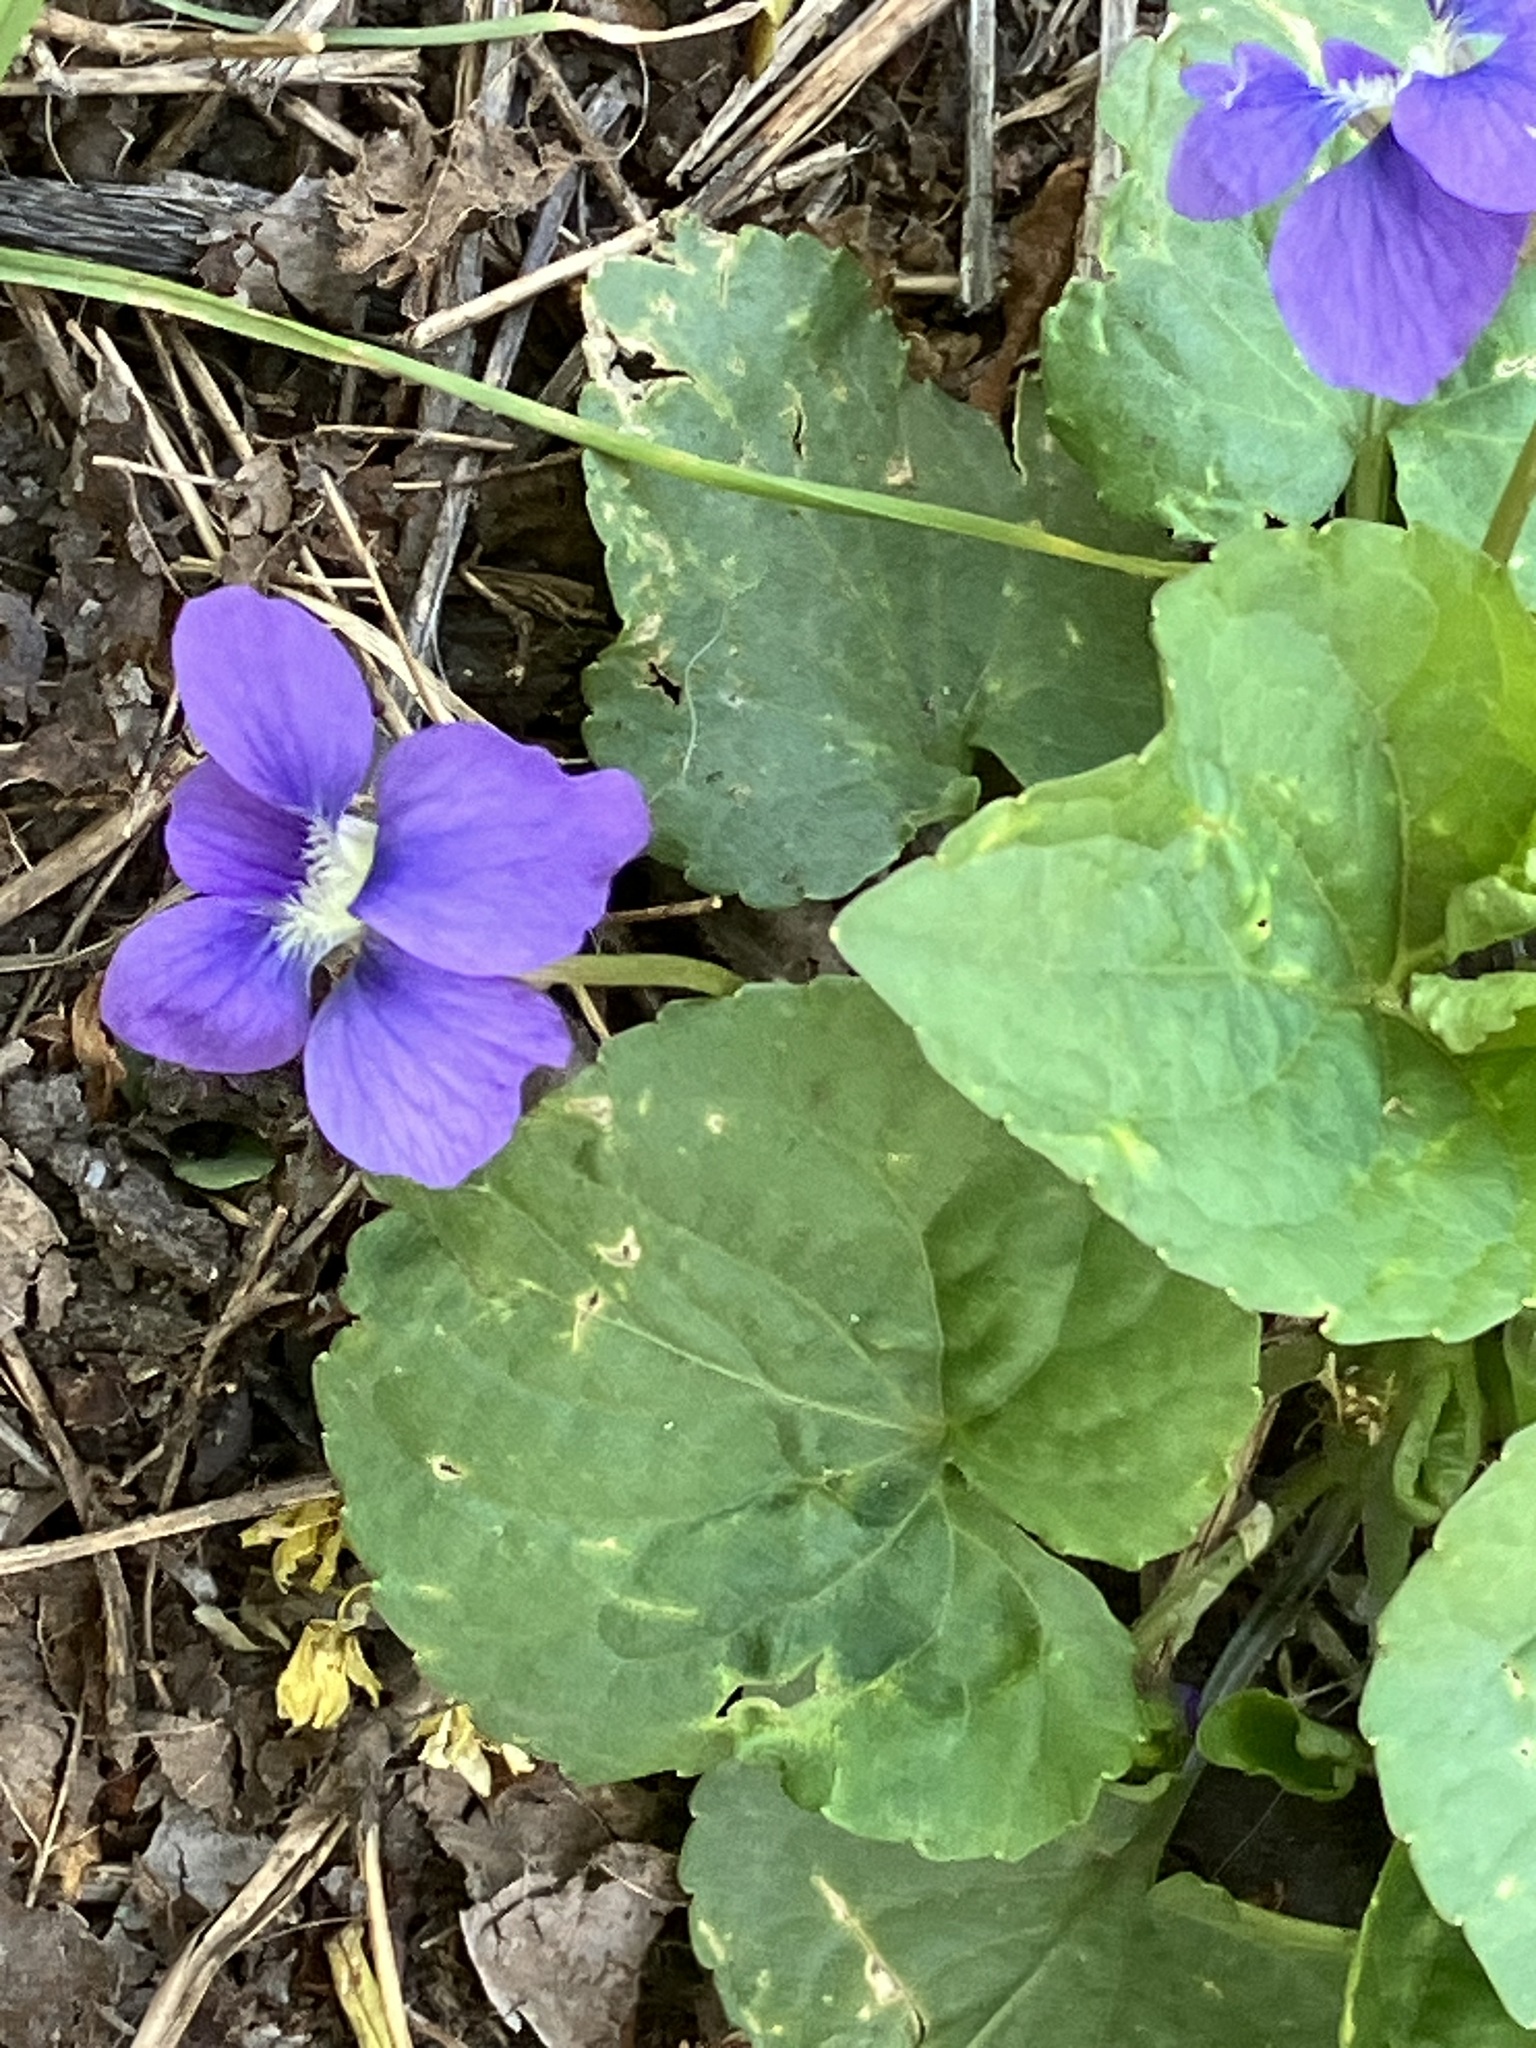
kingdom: Plantae
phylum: Tracheophyta
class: Magnoliopsida
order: Malpighiales
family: Violaceae
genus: Viola
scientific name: Viola sororia
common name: Dooryard violet
